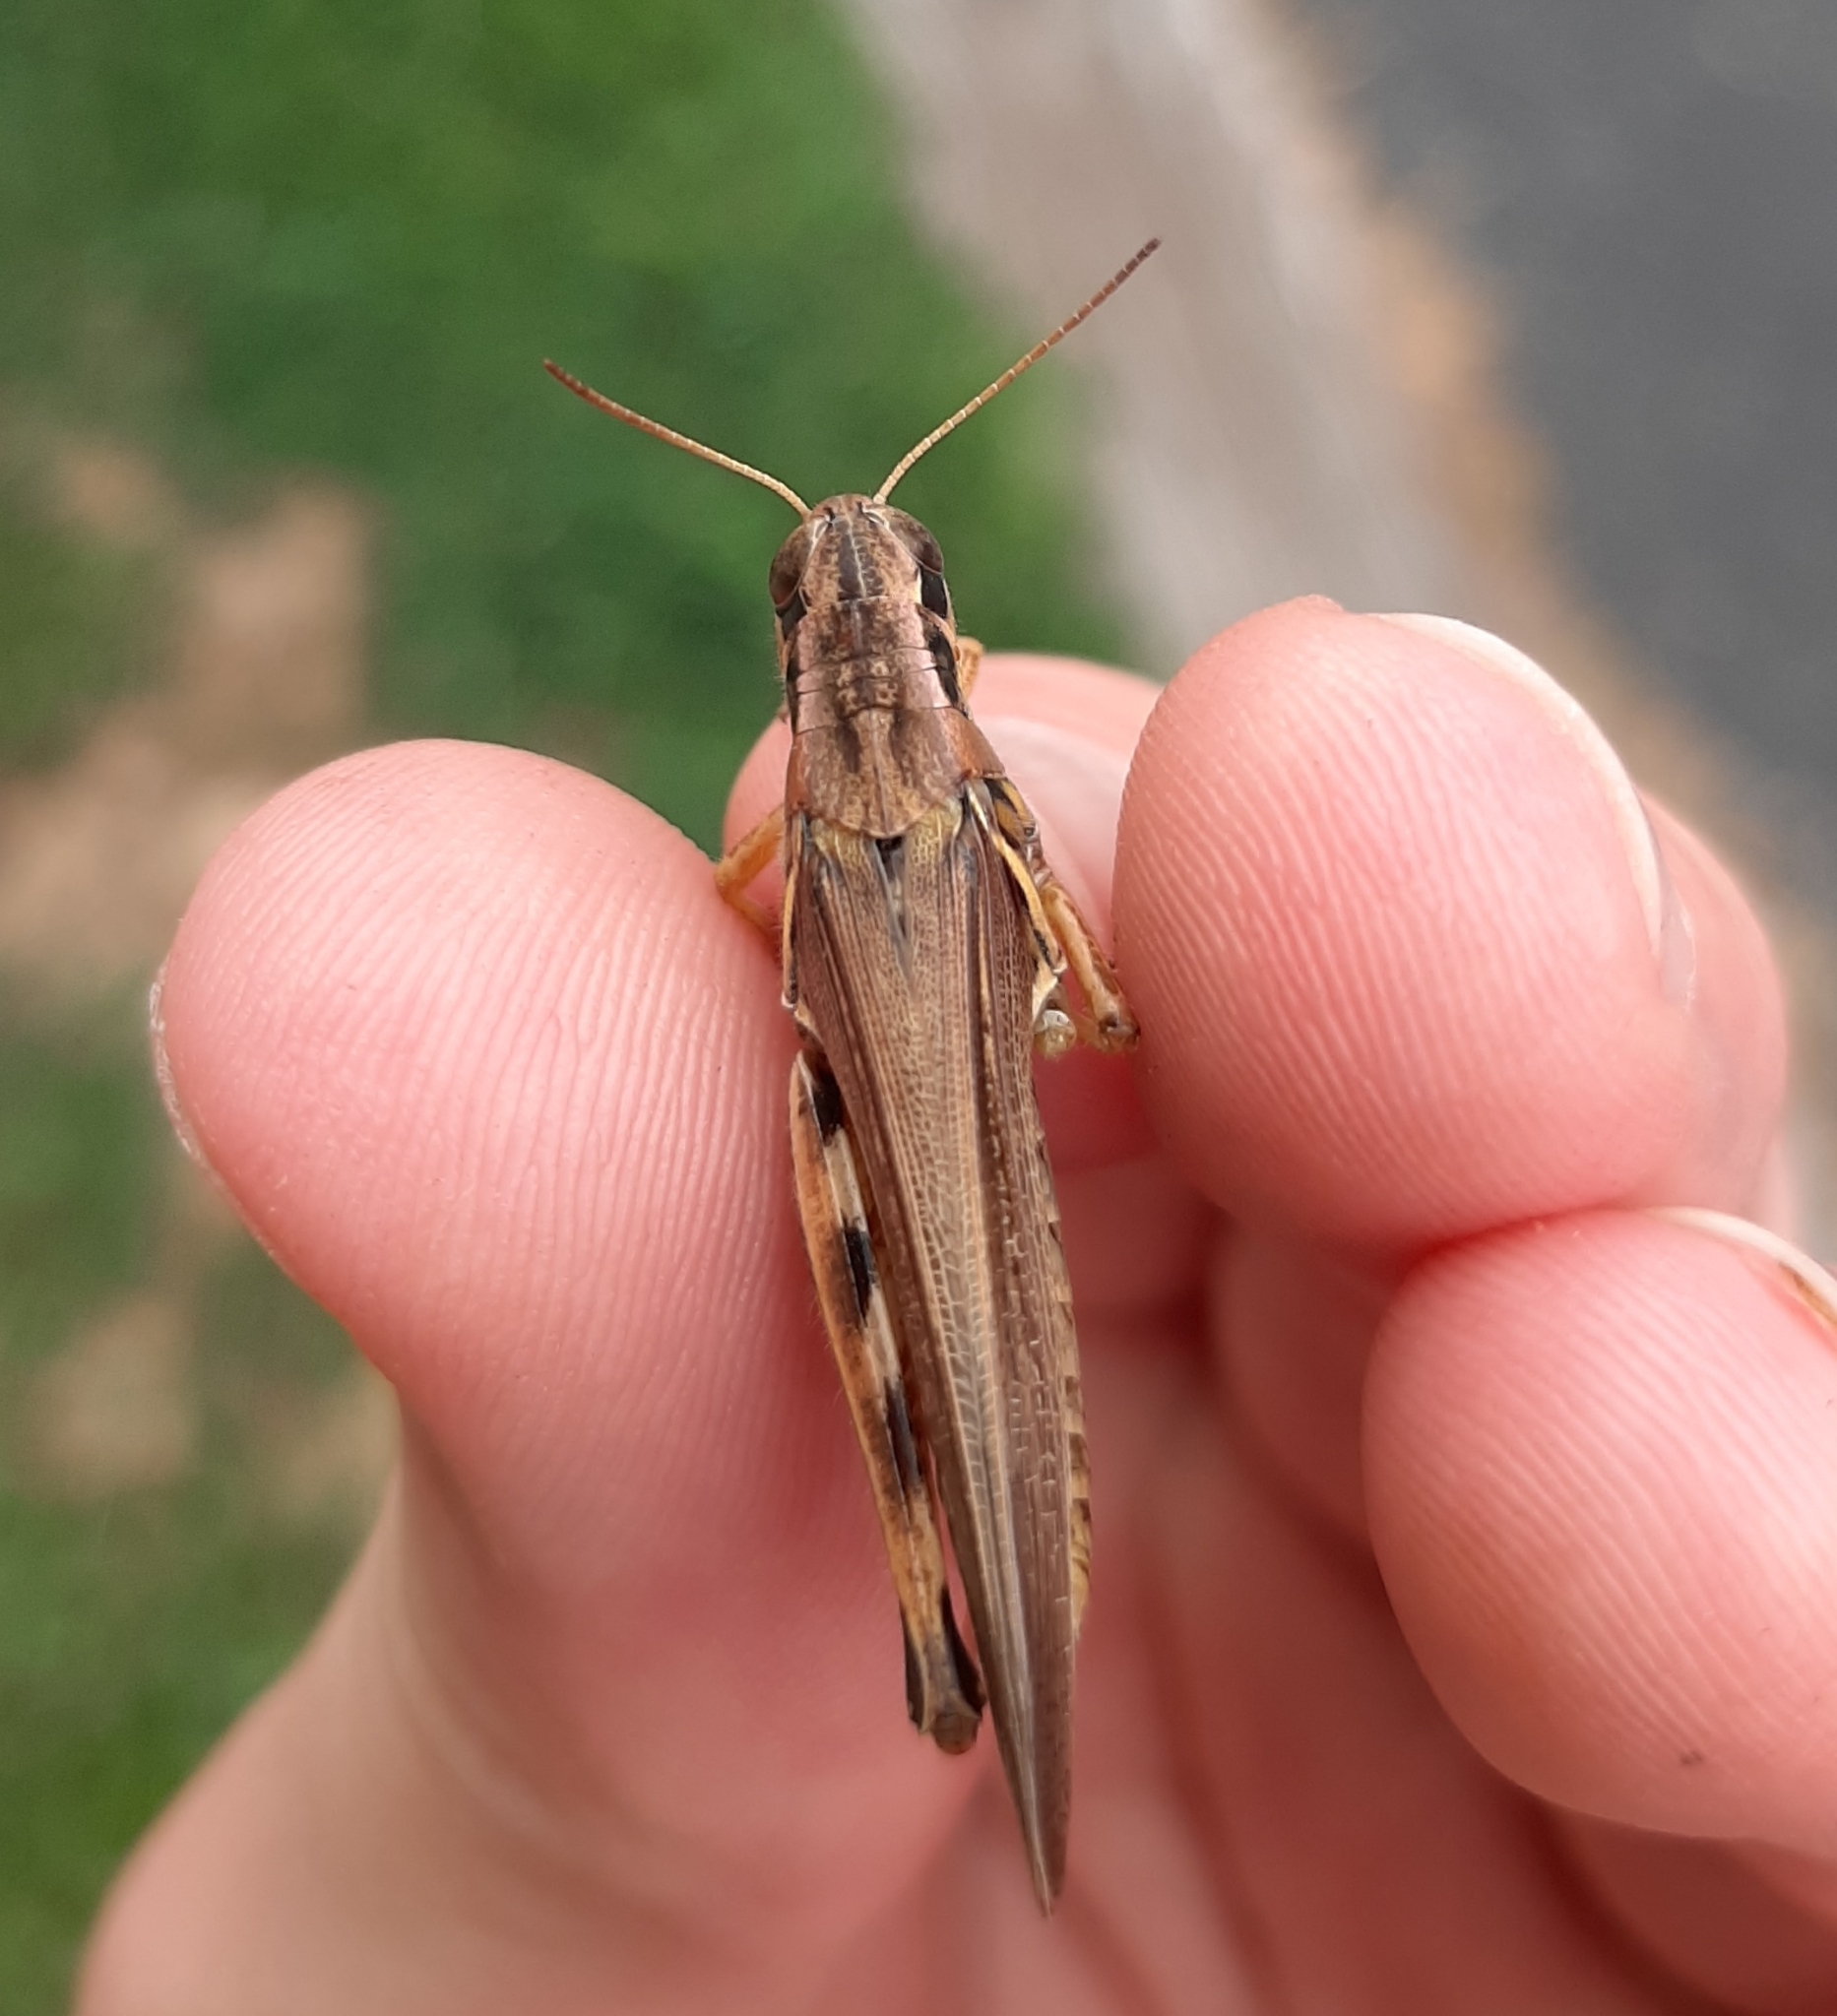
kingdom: Animalia
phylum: Arthropoda
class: Insecta
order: Orthoptera
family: Acrididae
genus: Melanoplus
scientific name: Melanoplus femurrubrum
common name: Red-legged grasshopper
